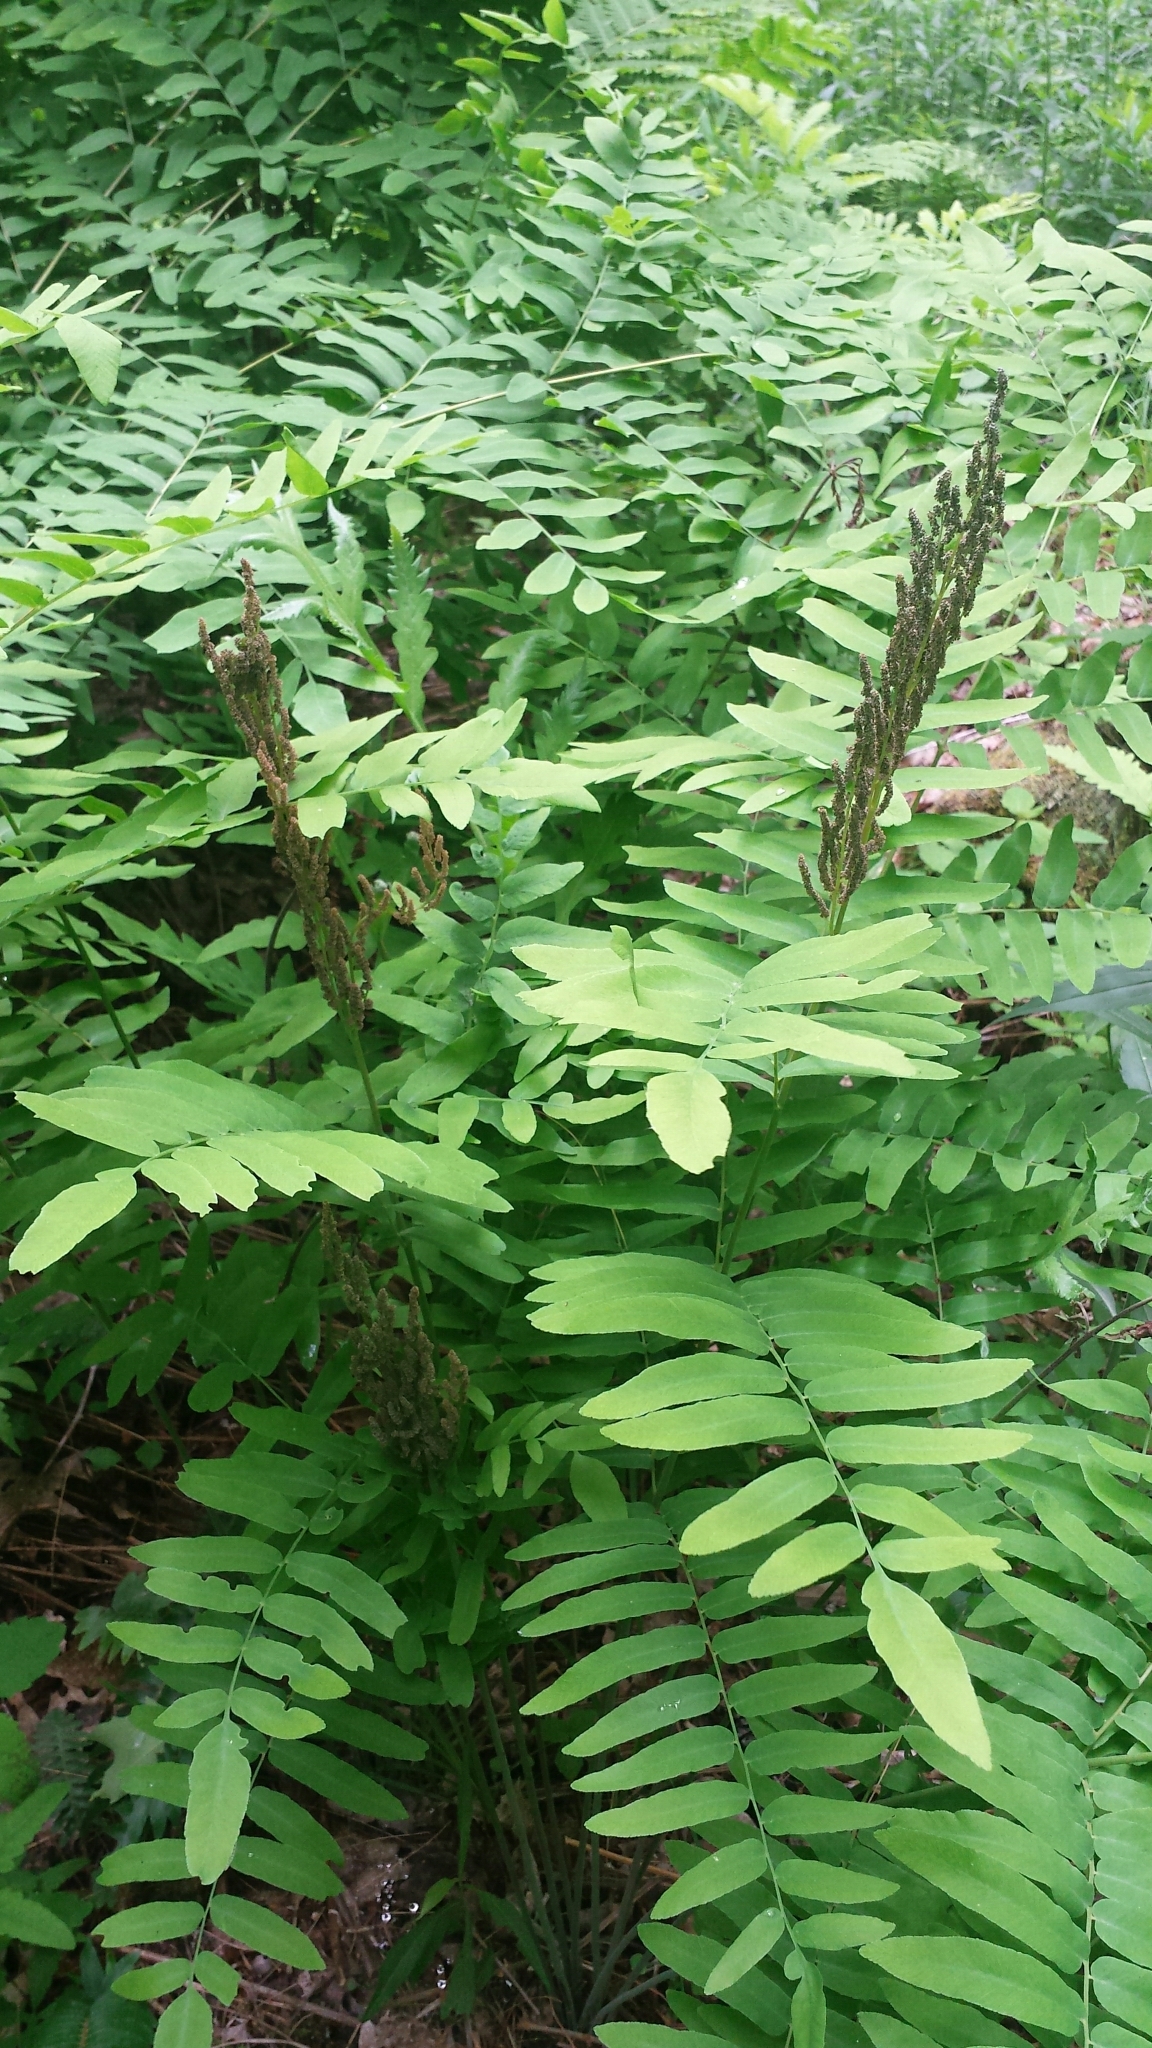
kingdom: Plantae
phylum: Tracheophyta
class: Polypodiopsida
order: Osmundales
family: Osmundaceae
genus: Osmunda
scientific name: Osmunda spectabilis
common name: American royal fern
